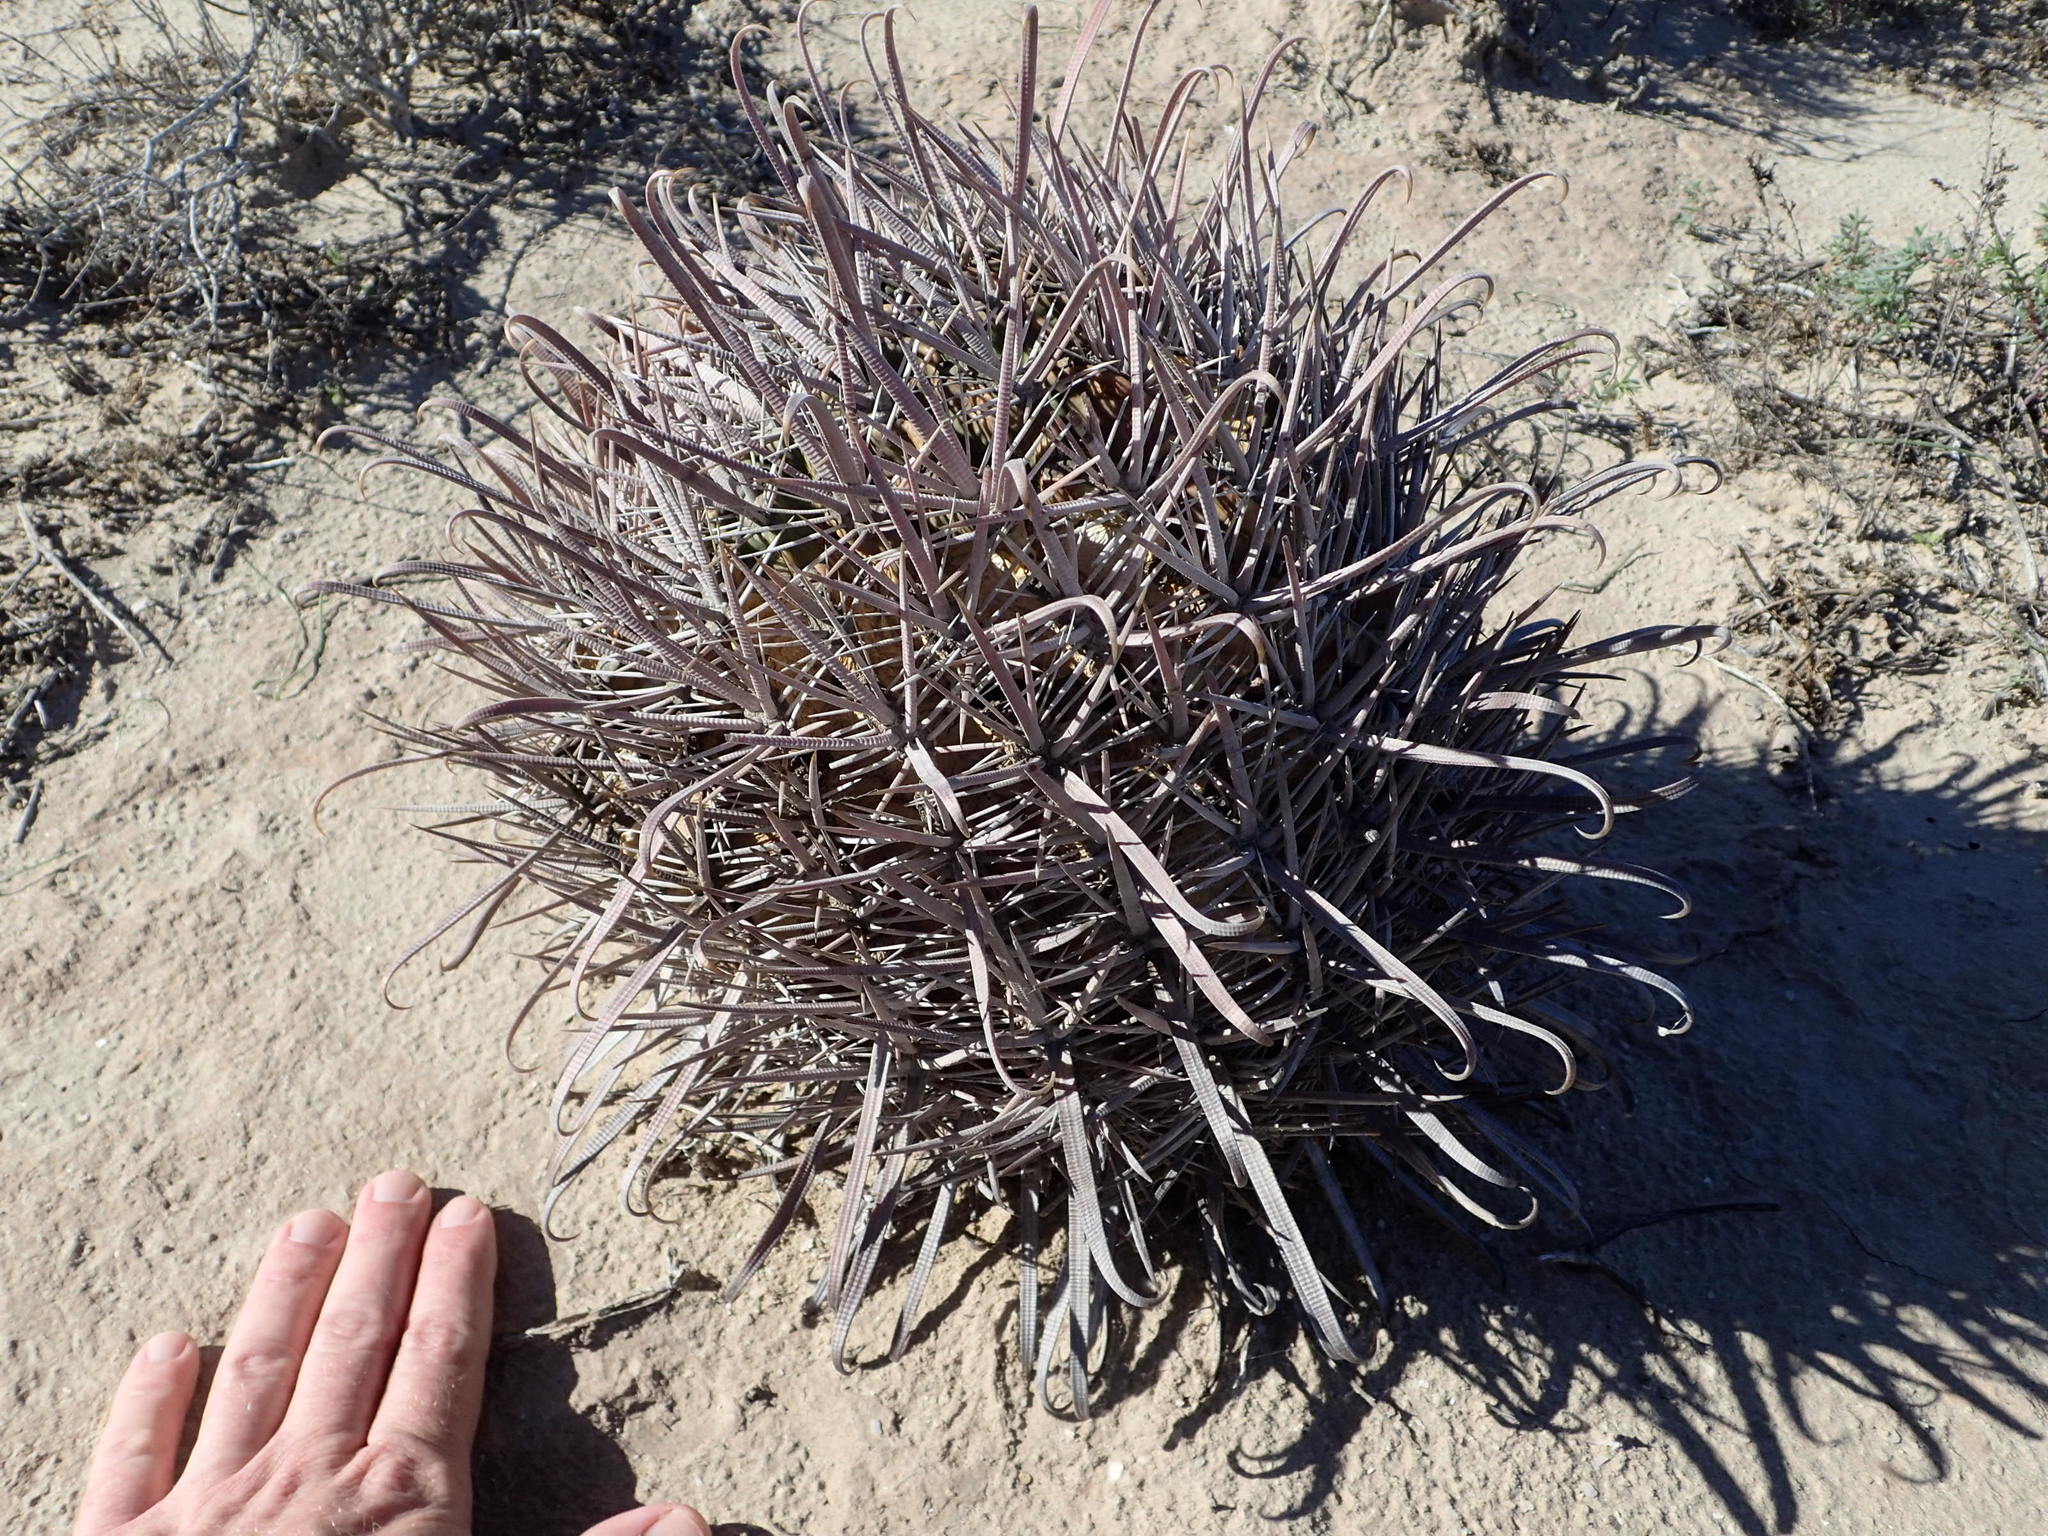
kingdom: Plantae
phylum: Tracheophyta
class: Magnoliopsida
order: Caryophyllales
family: Cactaceae
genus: Ferocactus
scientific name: Ferocactus chrysacanthus
